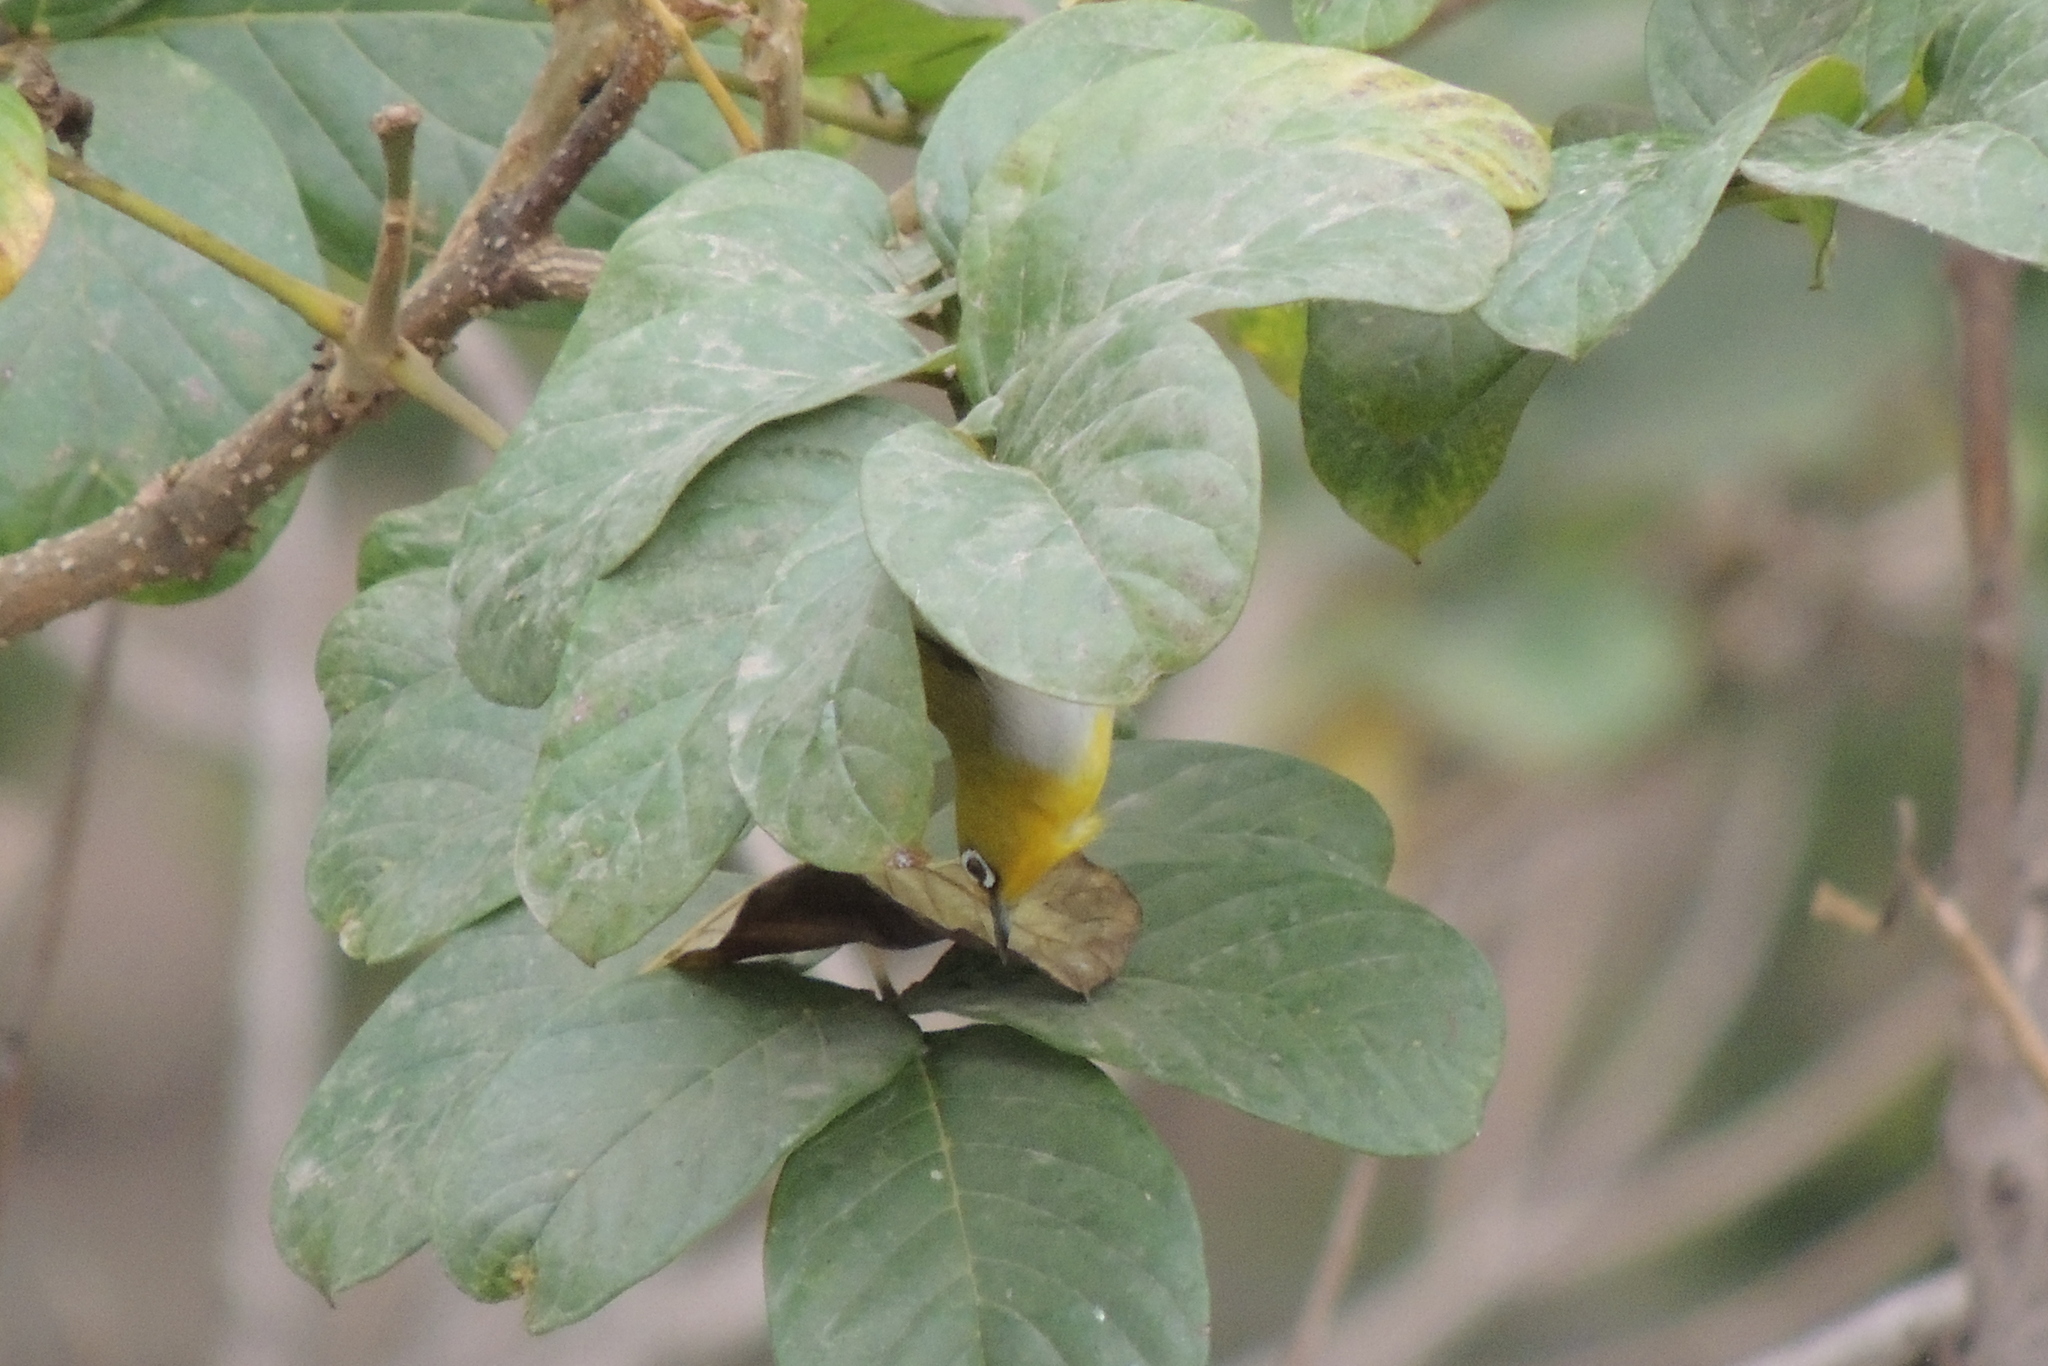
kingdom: Animalia
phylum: Chordata
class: Aves
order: Passeriformes
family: Zosteropidae
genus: Zosterops
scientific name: Zosterops palpebrosus
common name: Oriental white-eye
